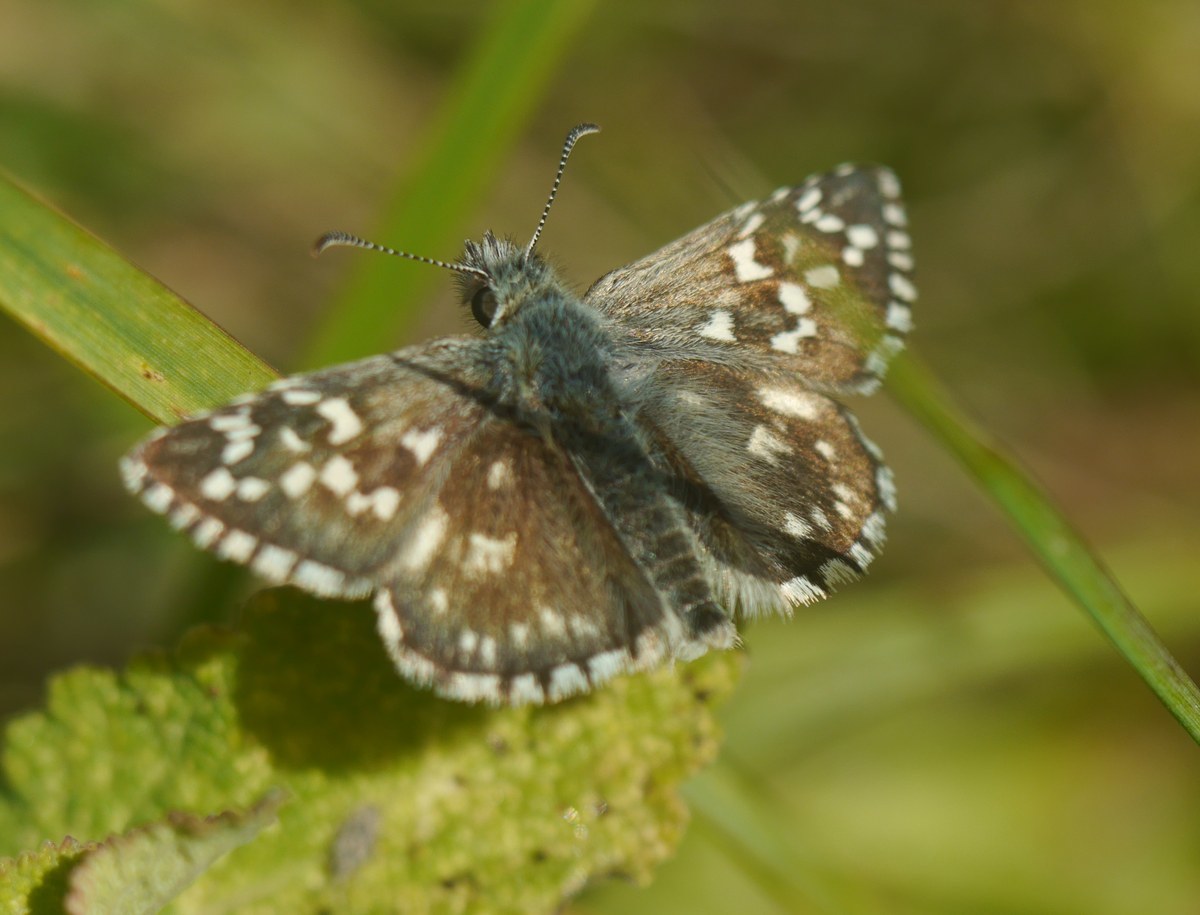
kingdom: Animalia
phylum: Arthropoda
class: Insecta
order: Lepidoptera
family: Hesperiidae
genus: Pyrgus
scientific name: Pyrgus armoricanus
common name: Oberthür's grizzled skipper
